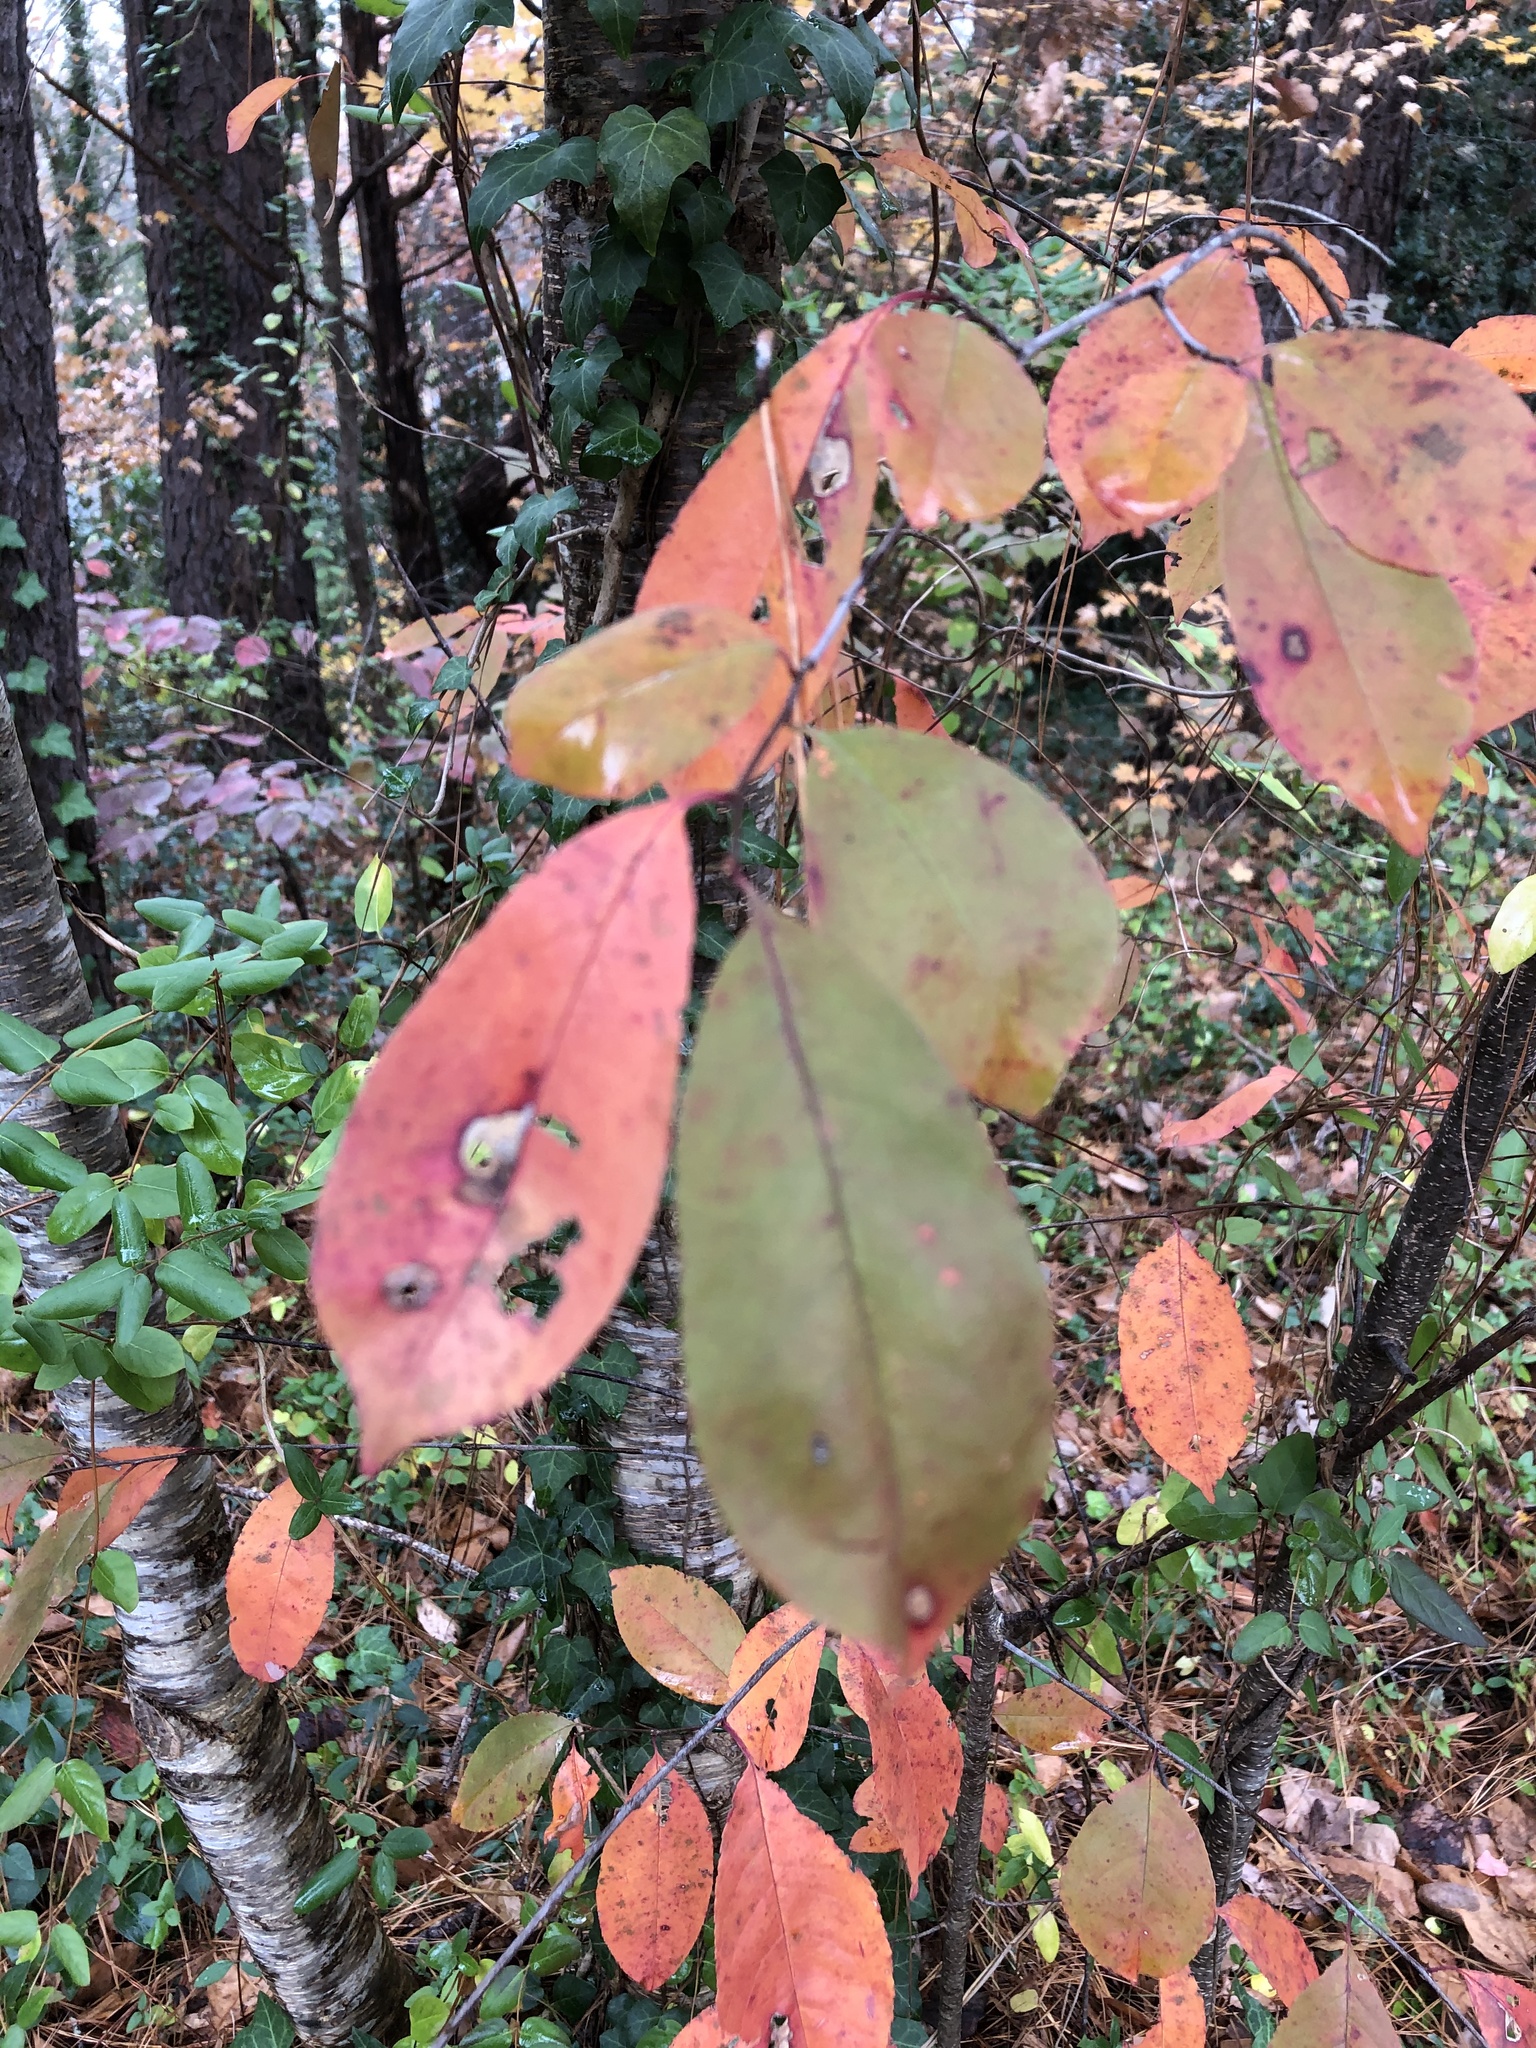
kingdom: Plantae
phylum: Tracheophyta
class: Magnoliopsida
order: Rosales
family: Rosaceae
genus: Prunus
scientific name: Prunus serotina
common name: Black cherry
